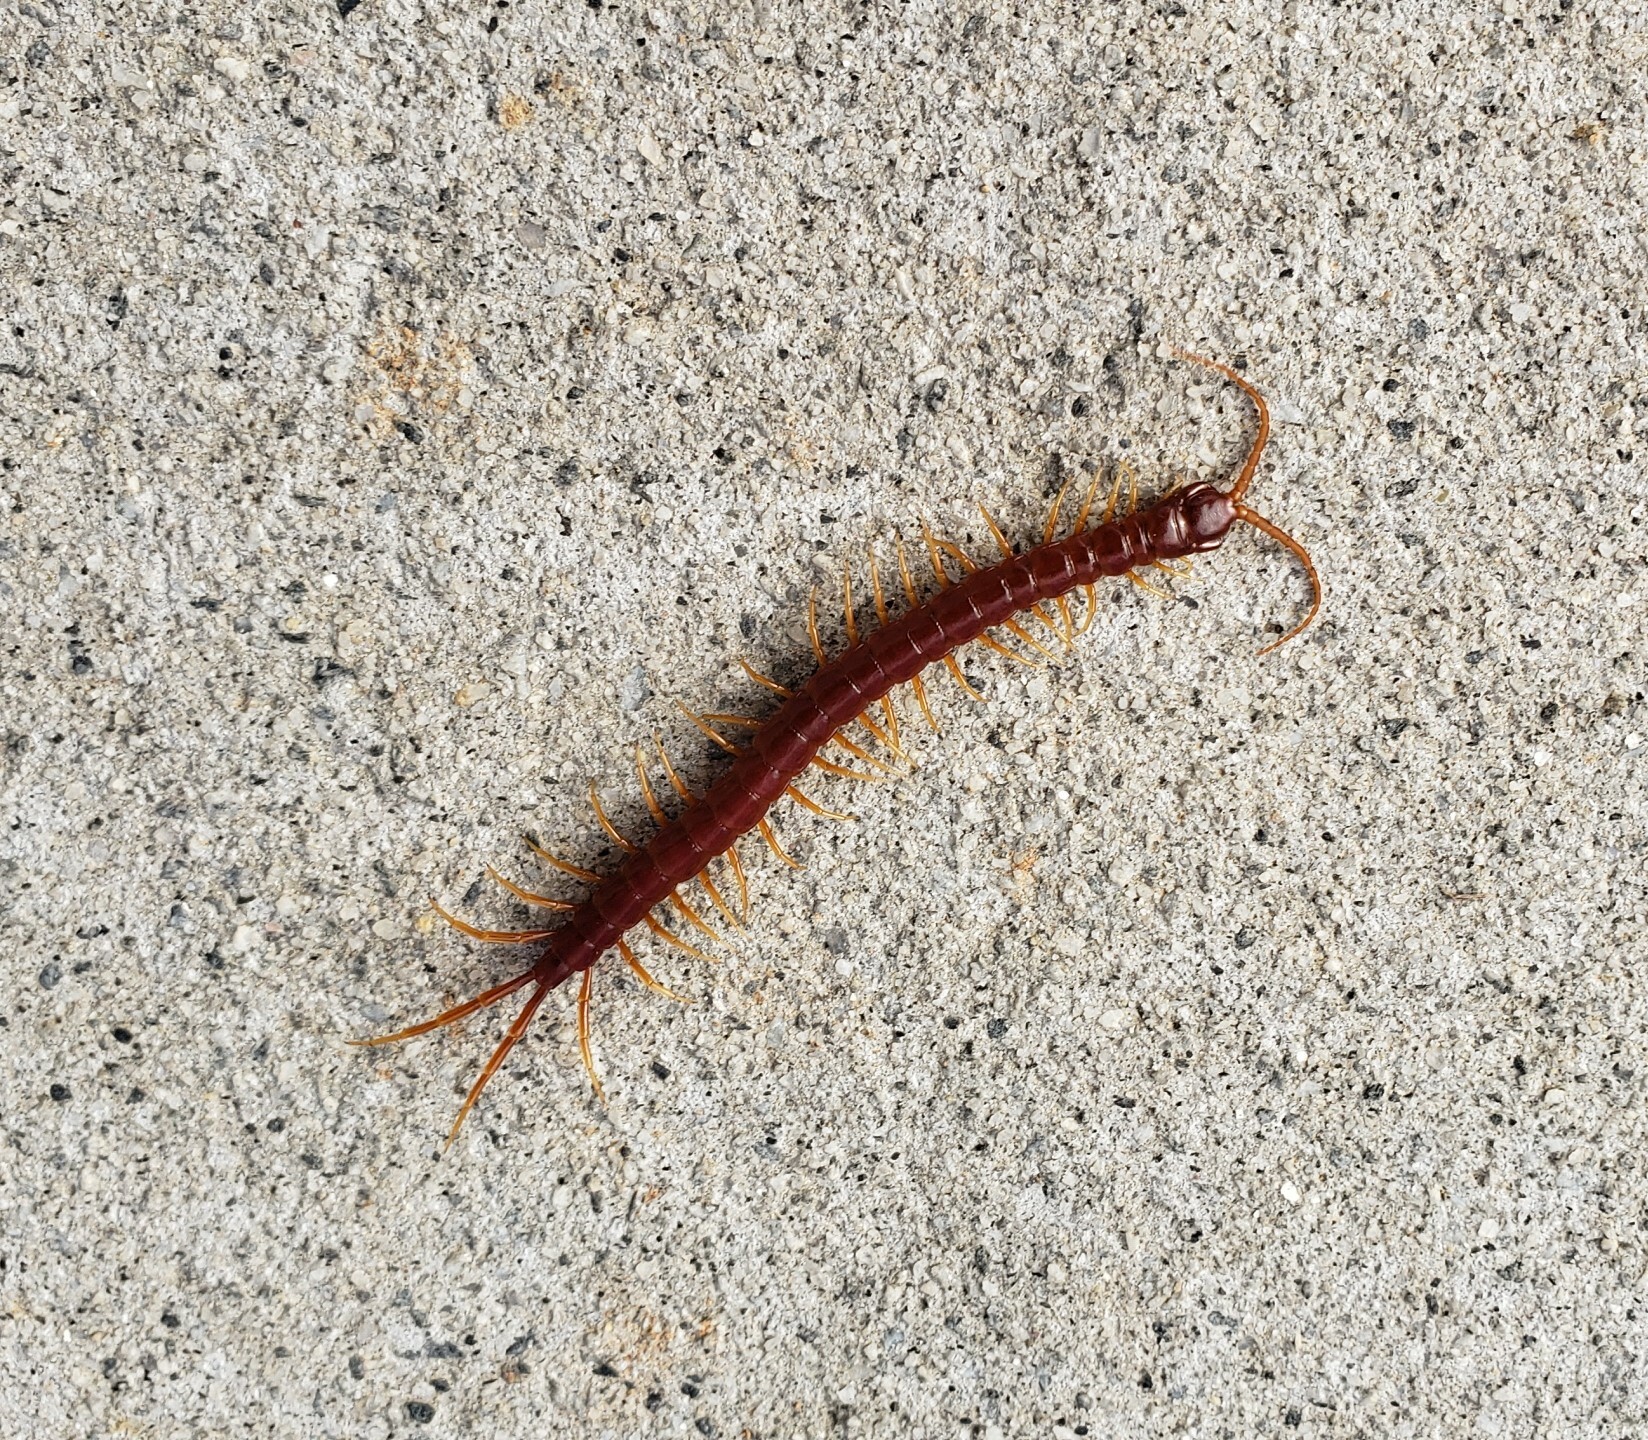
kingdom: Animalia
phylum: Arthropoda
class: Chilopoda
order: Scolopendromorpha
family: Scolopocryptopidae
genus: Scolopocryptops
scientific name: Scolopocryptops sexspinosus
